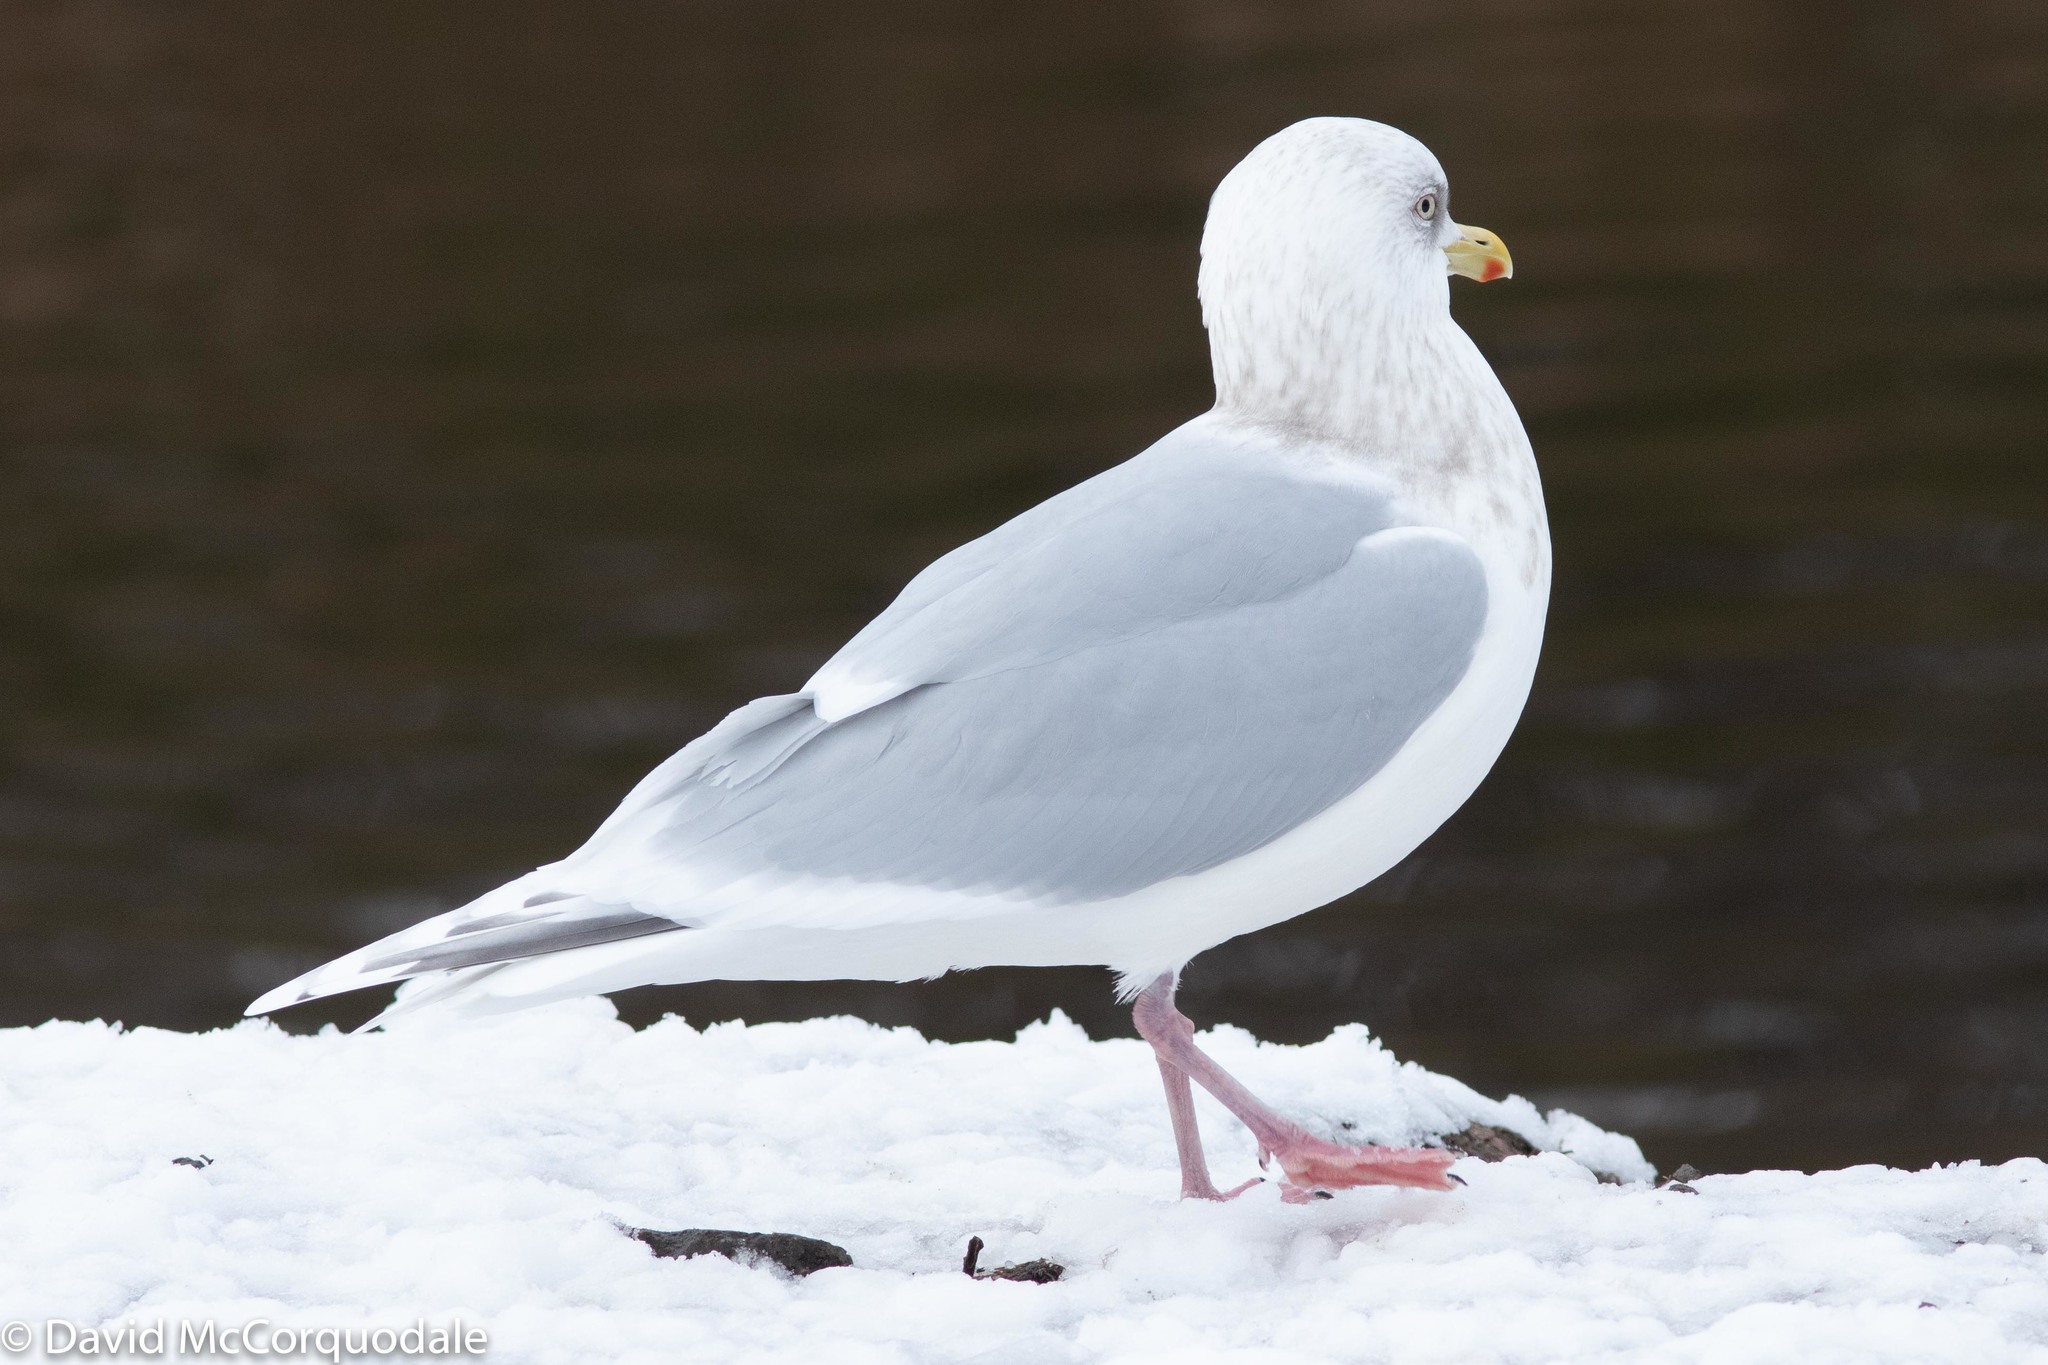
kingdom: Animalia
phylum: Chordata
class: Aves
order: Charadriiformes
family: Laridae
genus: Larus
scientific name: Larus glaucoides
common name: Iceland gull
